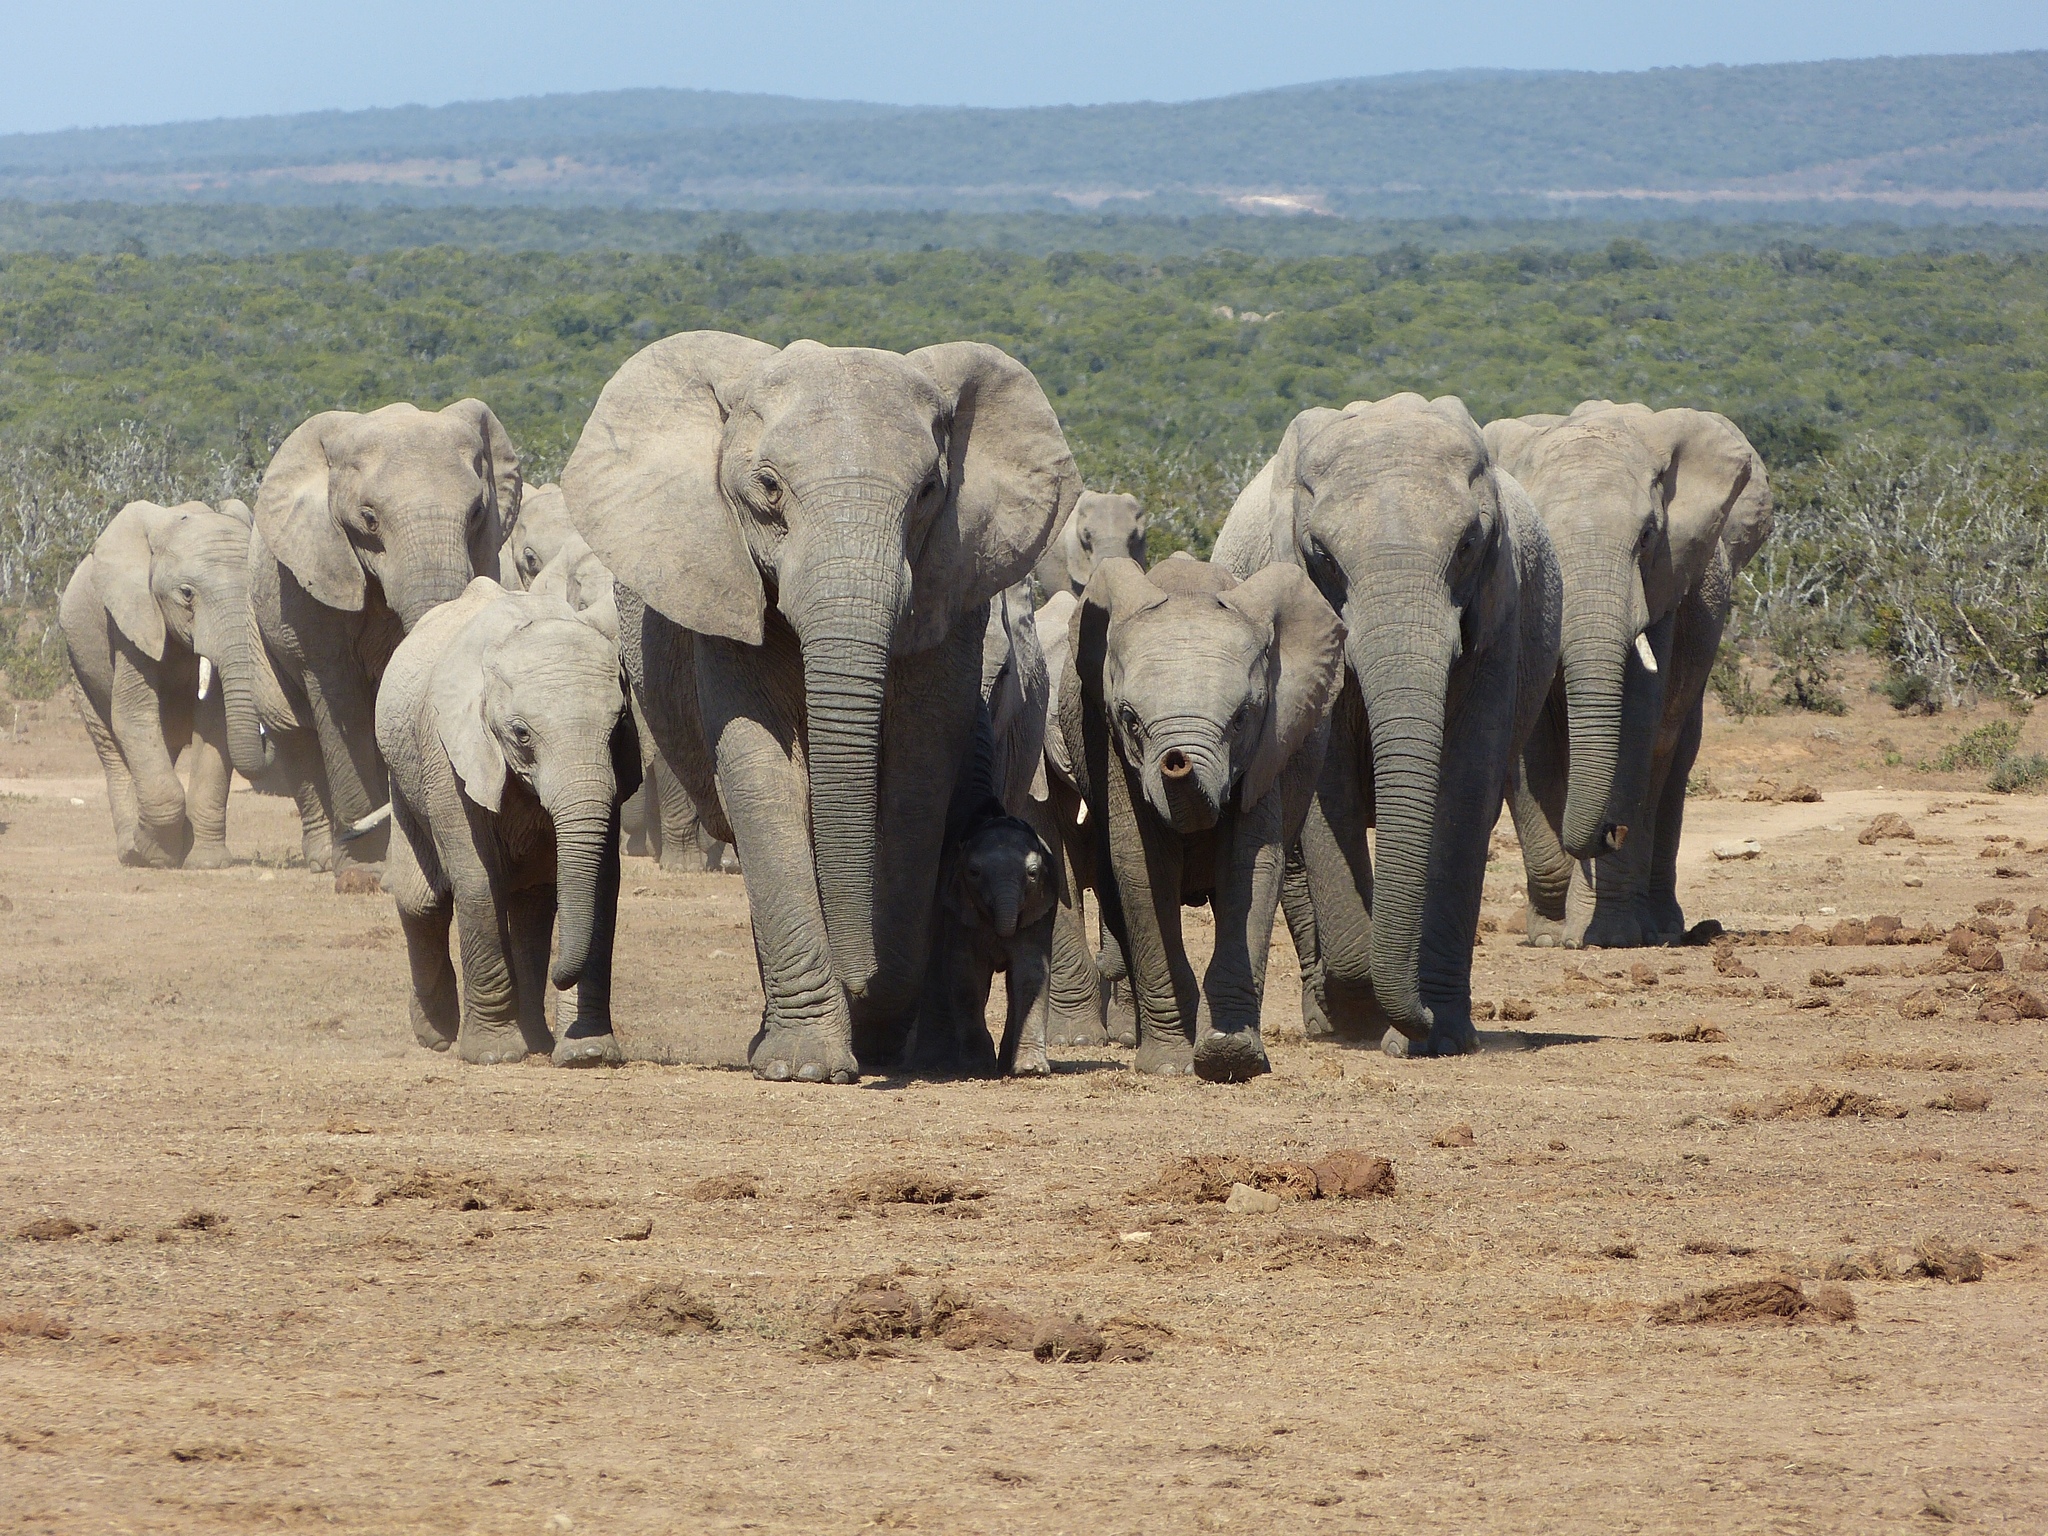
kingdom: Animalia
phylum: Chordata
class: Mammalia
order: Proboscidea
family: Elephantidae
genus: Loxodonta
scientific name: Loxodonta africana
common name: African elephant
